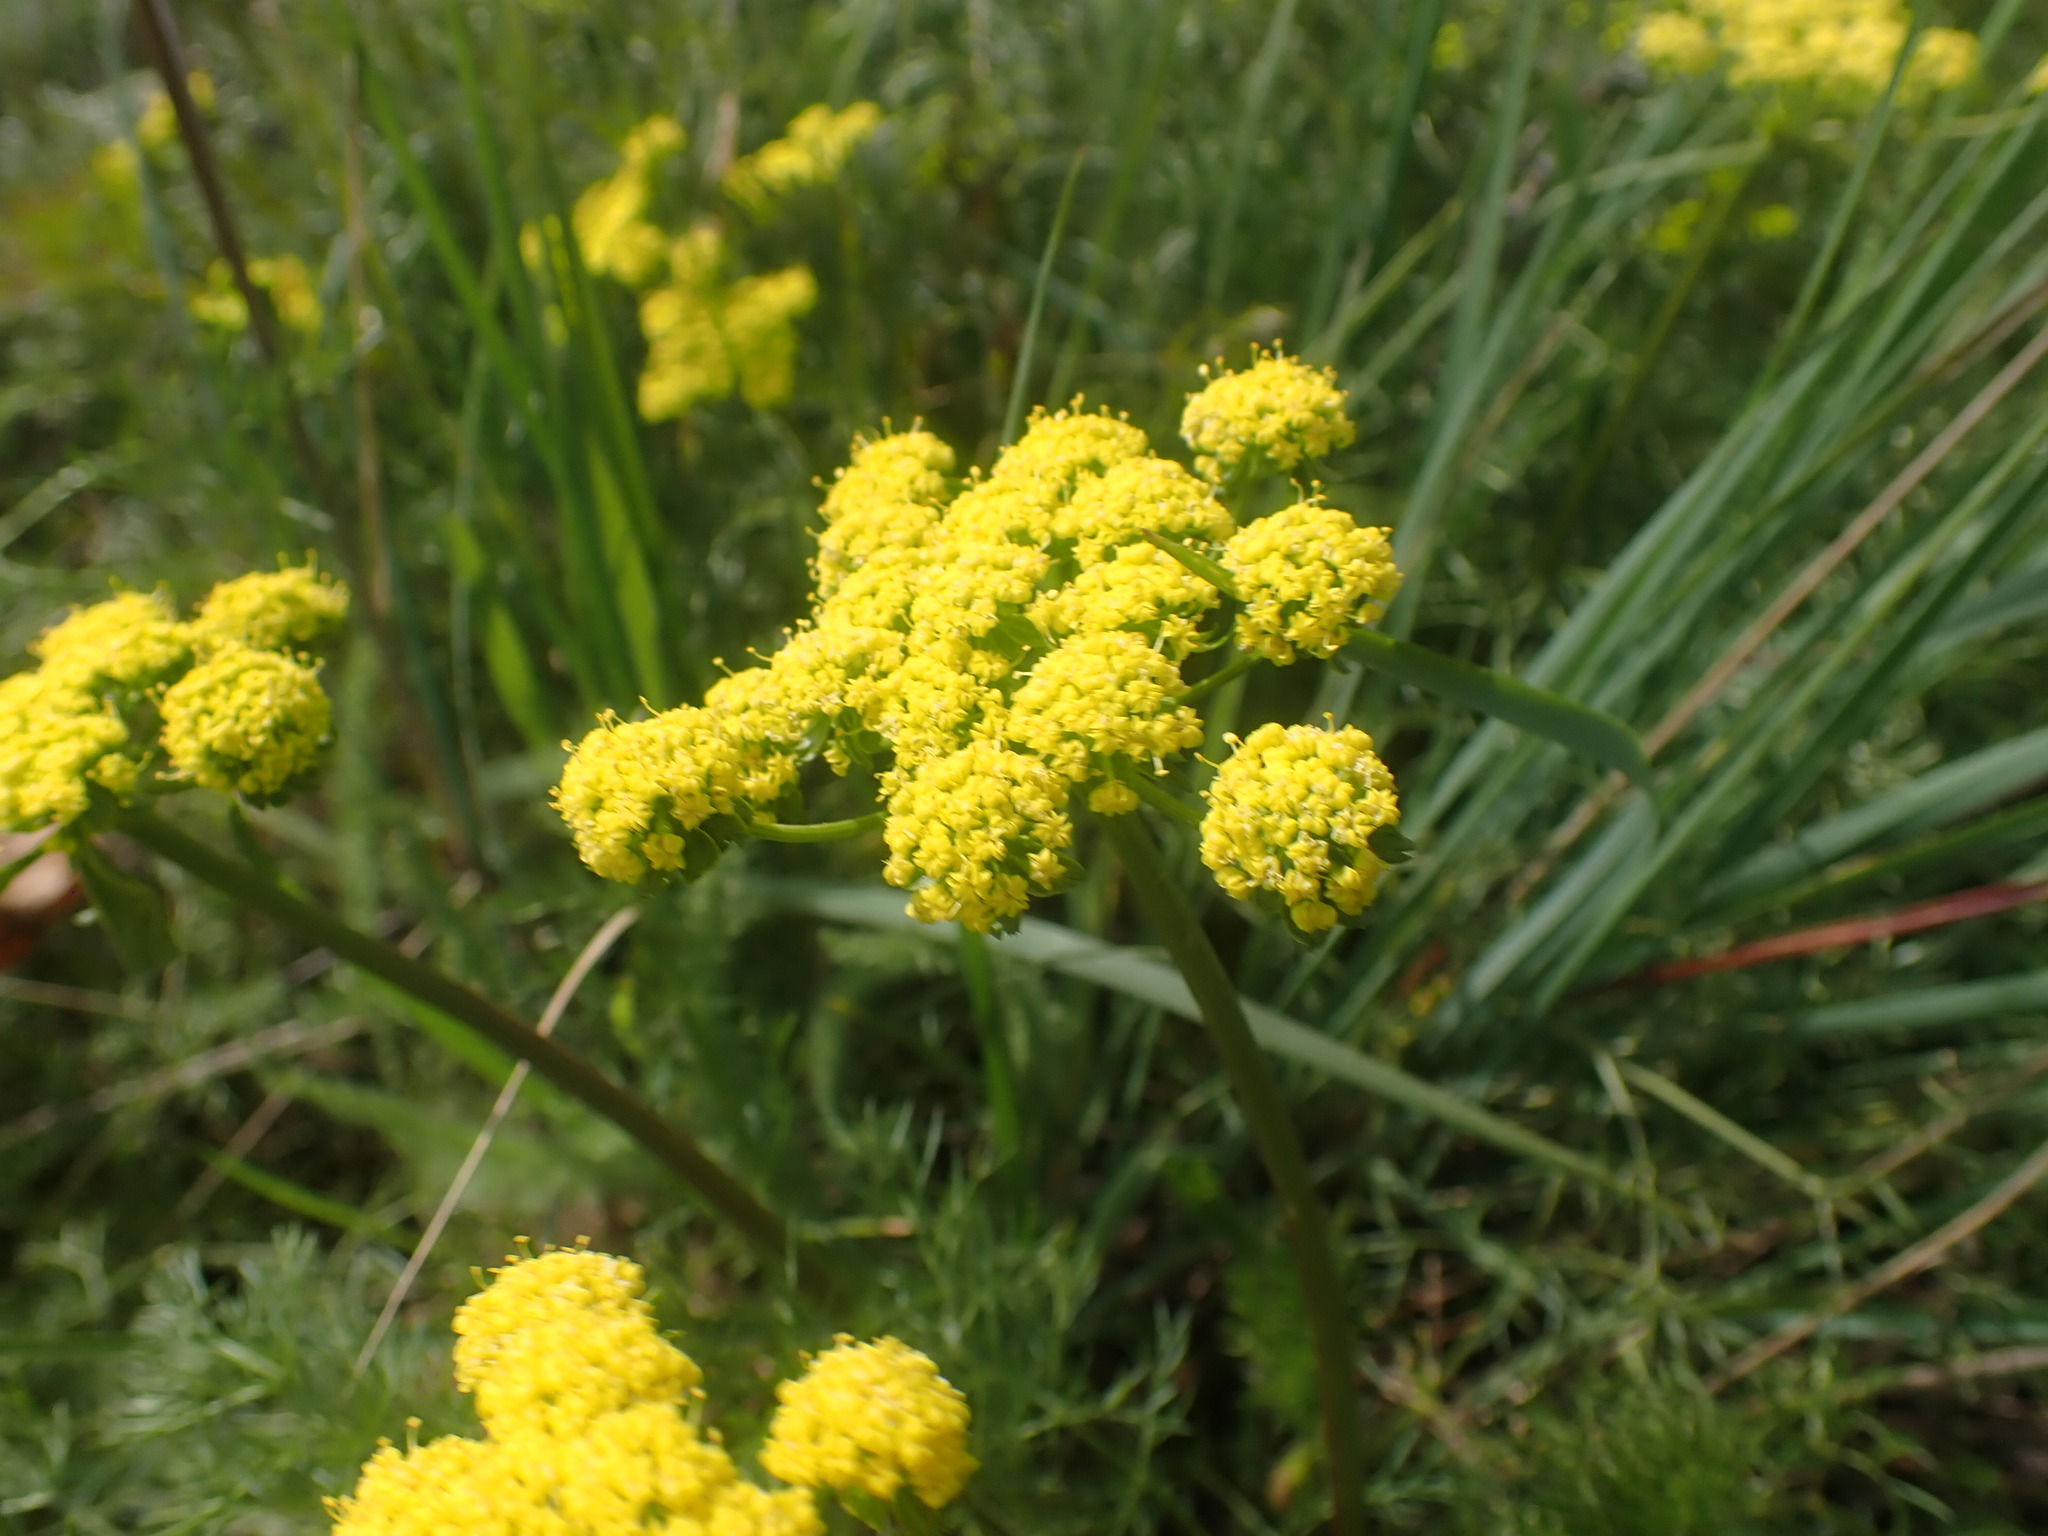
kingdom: Plantae
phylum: Tracheophyta
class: Magnoliopsida
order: Apiales
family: Apiaceae
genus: Lomatium
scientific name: Lomatium utriculatum
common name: Fine-leaf desert-parsley
